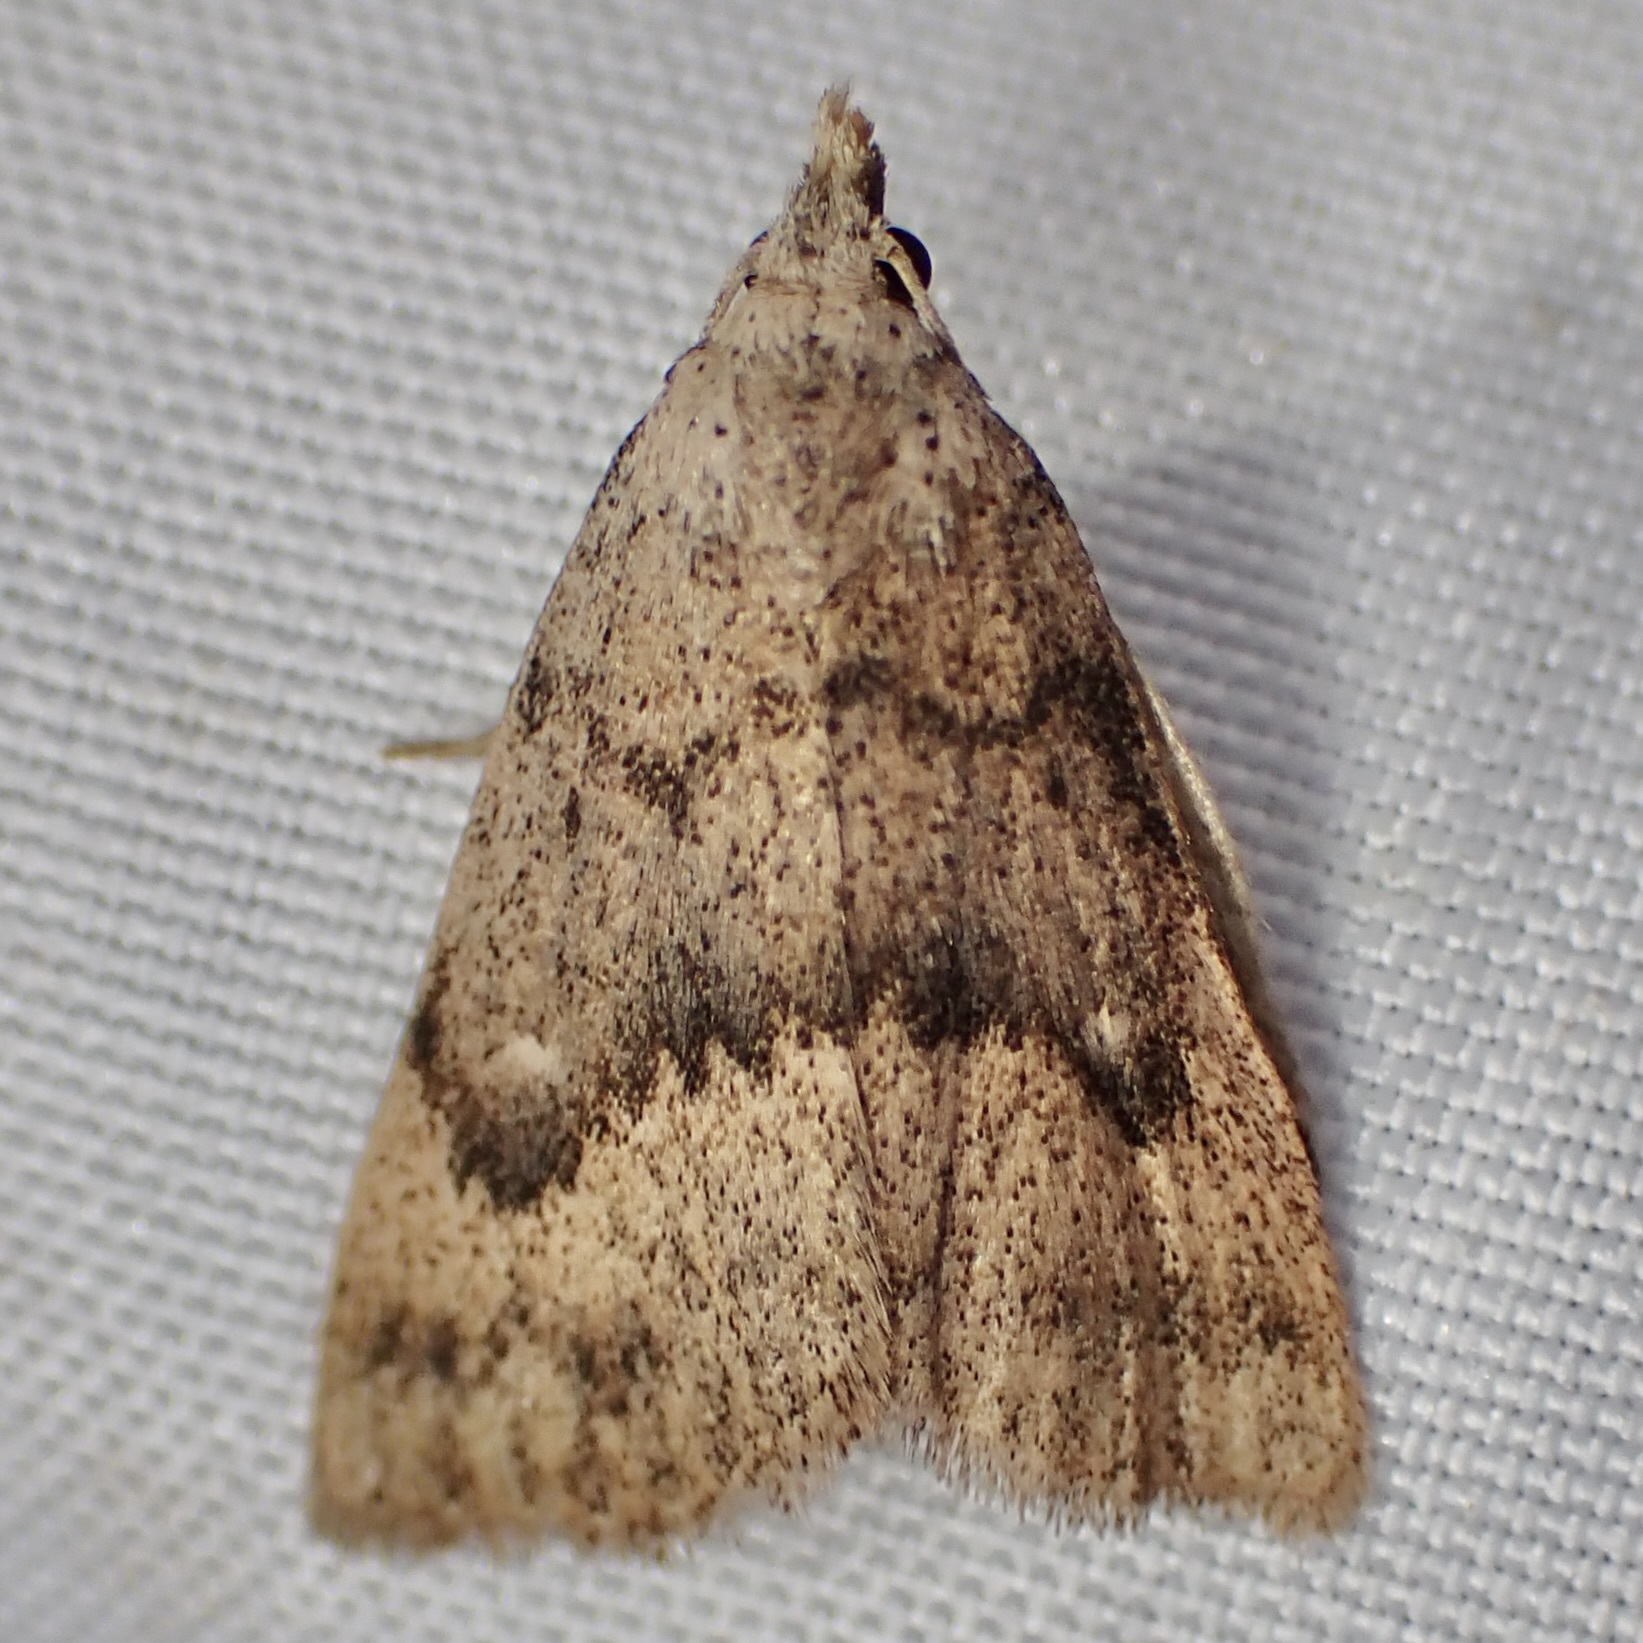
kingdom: Animalia
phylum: Arthropoda
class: Insecta
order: Lepidoptera
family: Erebidae
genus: Pseudorgyia
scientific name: Pseudorgyia russula
